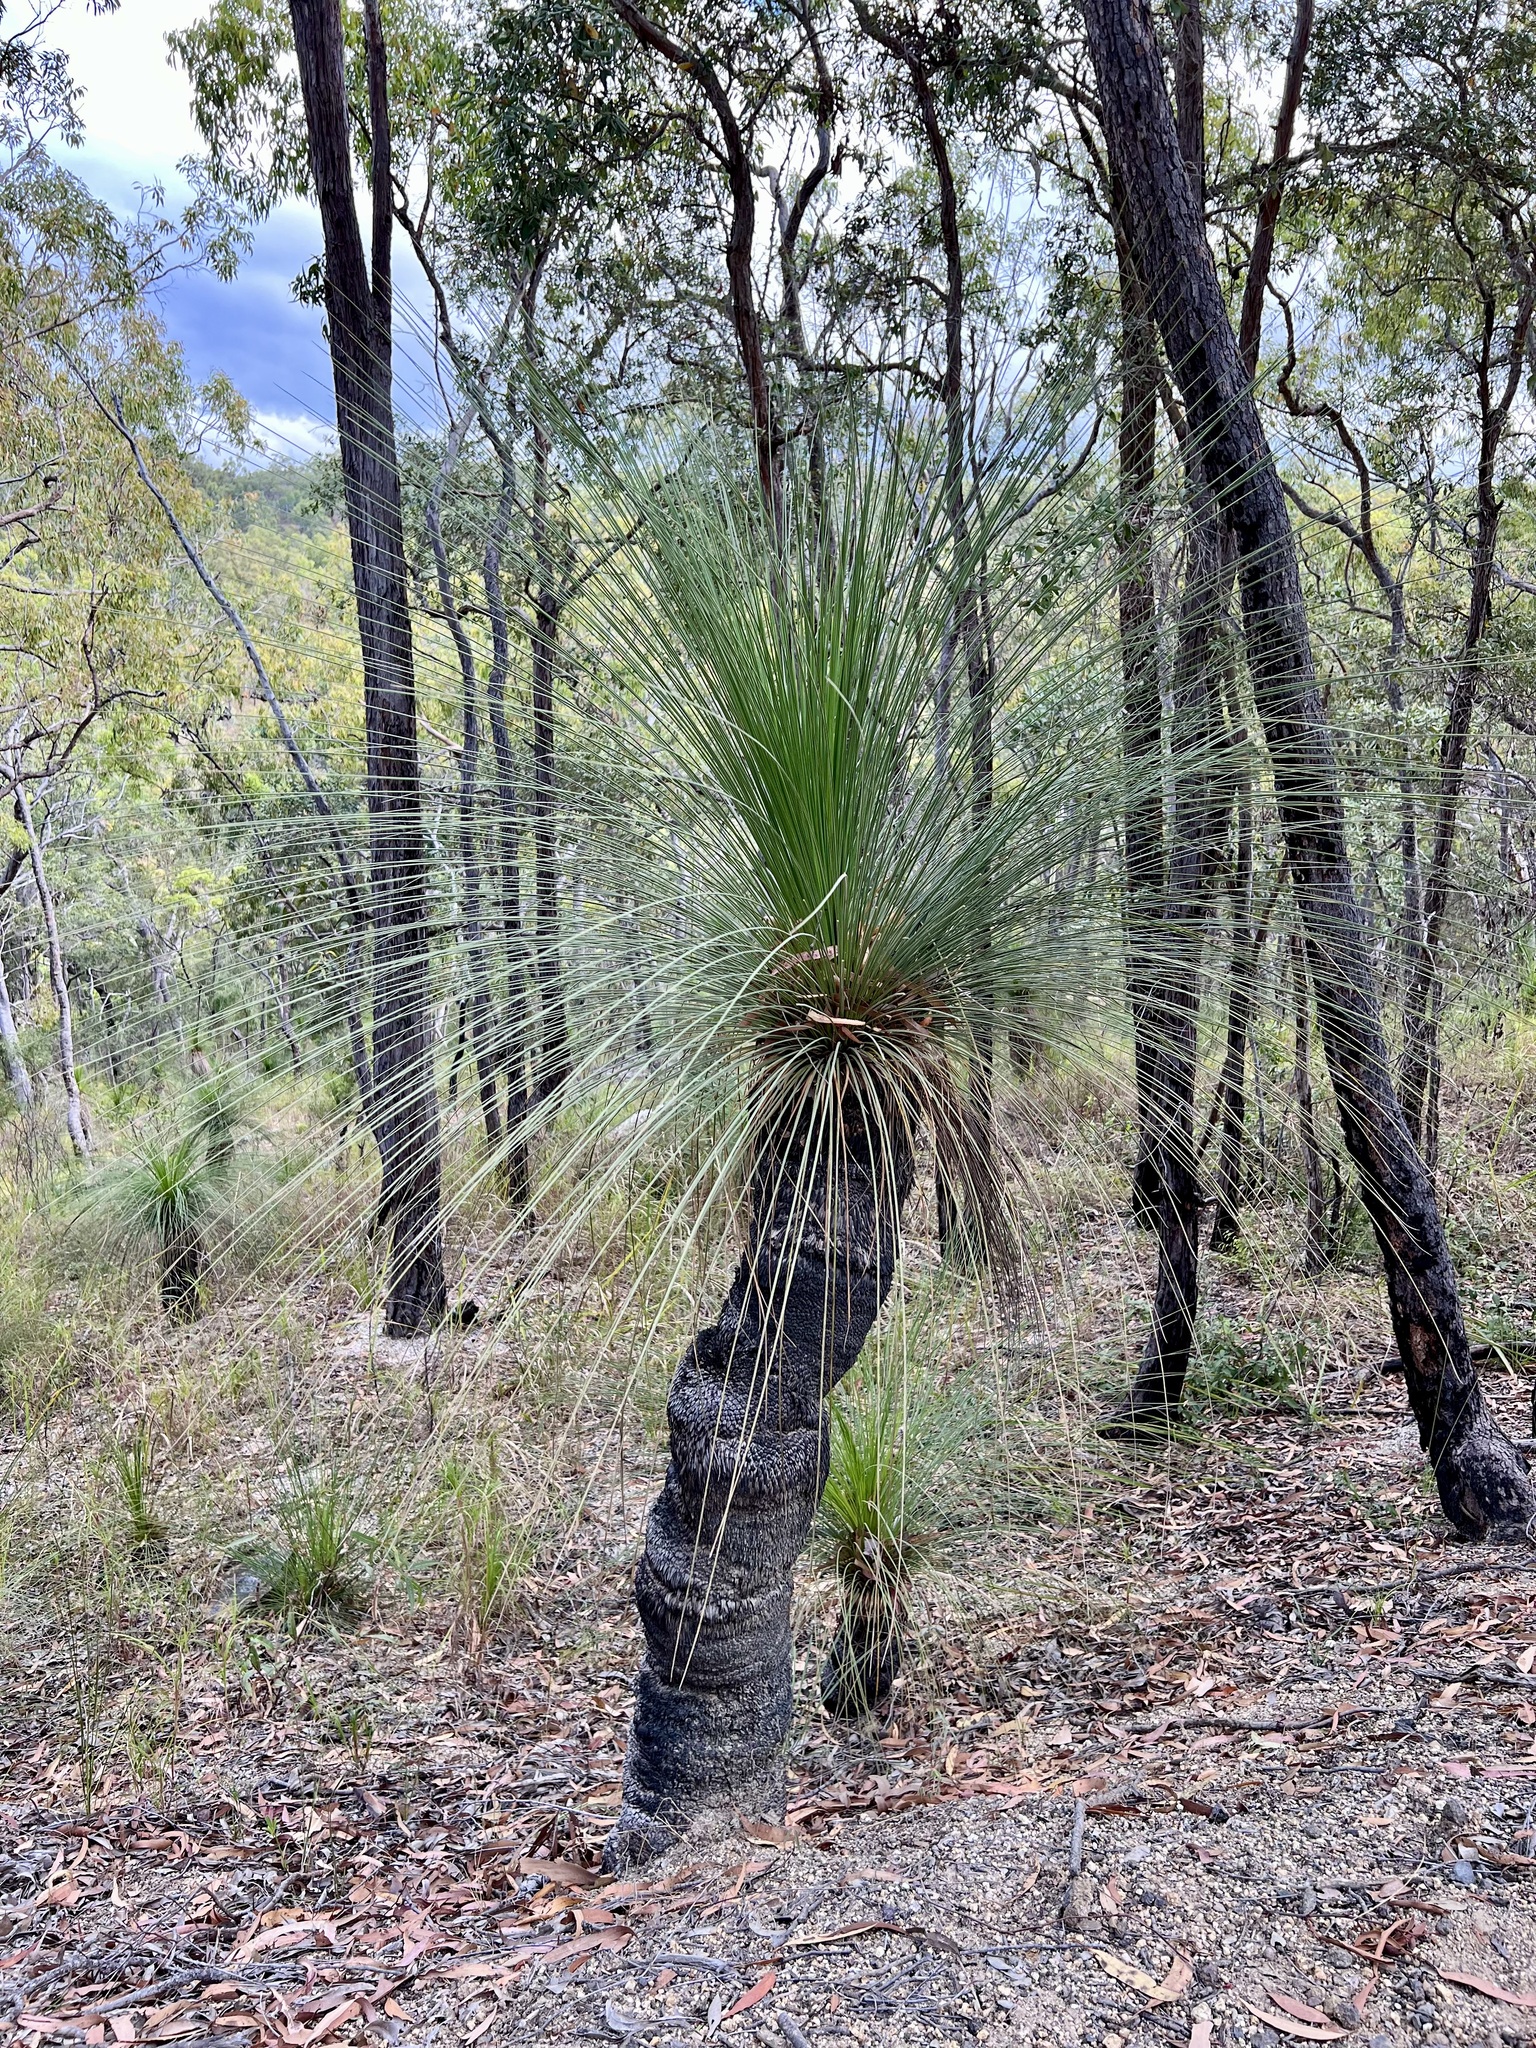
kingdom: Plantae
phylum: Tracheophyta
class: Liliopsida
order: Asparagales
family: Asphodelaceae
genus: Xanthorrhoea
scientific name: Xanthorrhoea johnsonii
